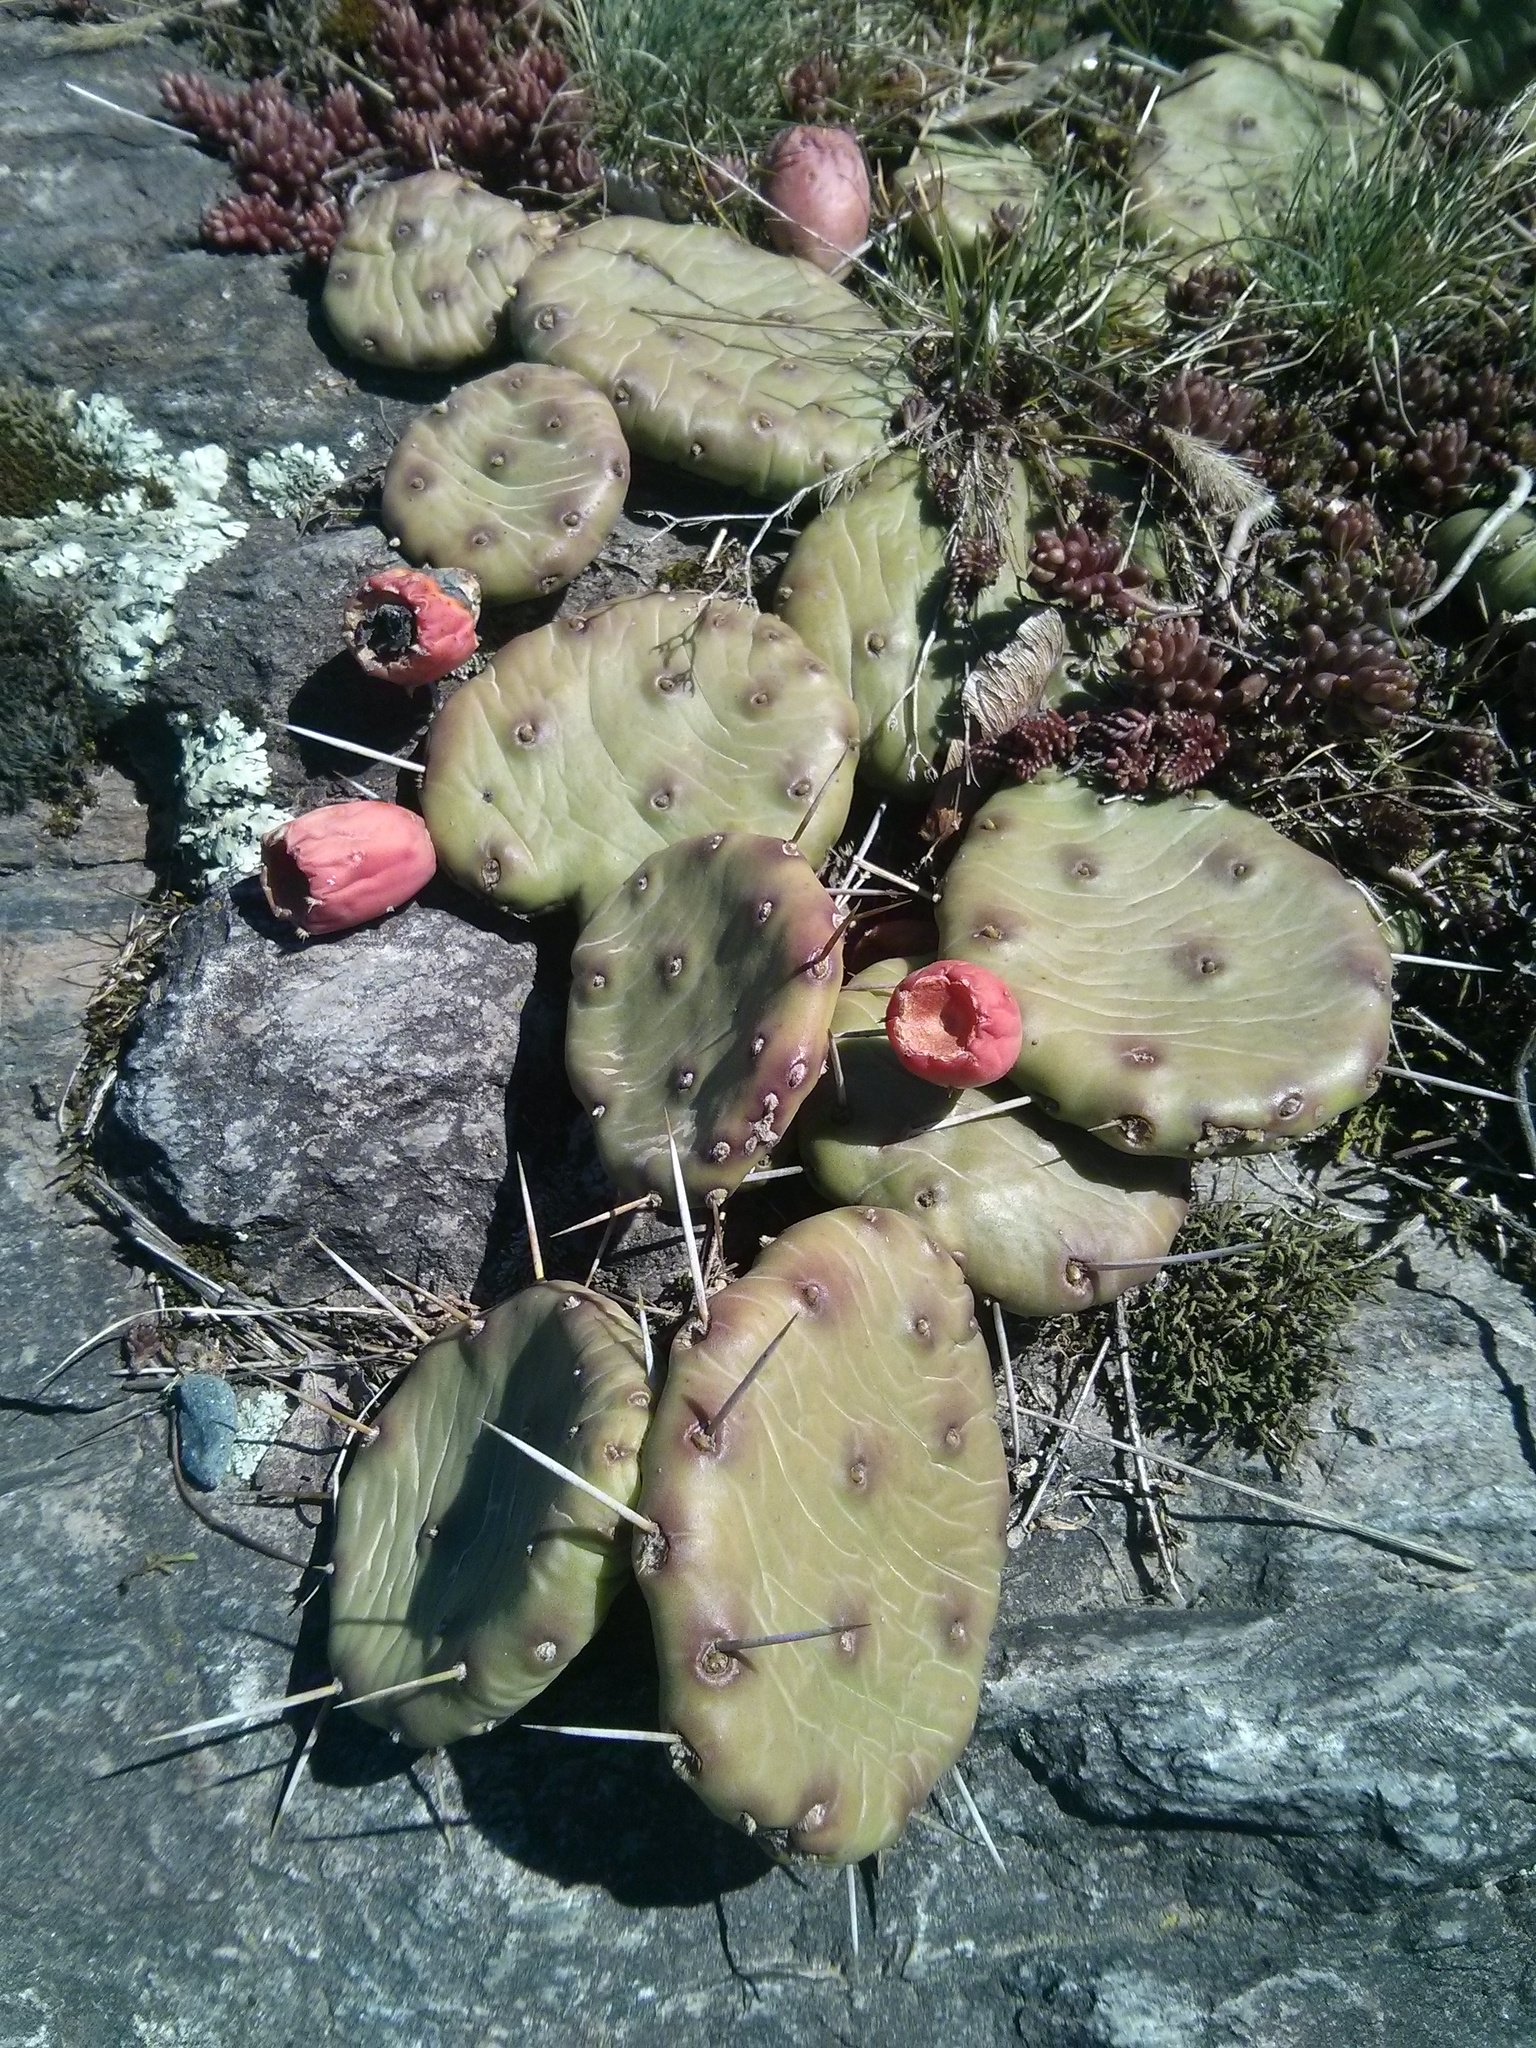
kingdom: Plantae
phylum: Tracheophyta
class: Magnoliopsida
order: Caryophyllales
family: Cactaceae
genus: Opuntia
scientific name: Opuntia humifusa
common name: Eastern prickly-pear
